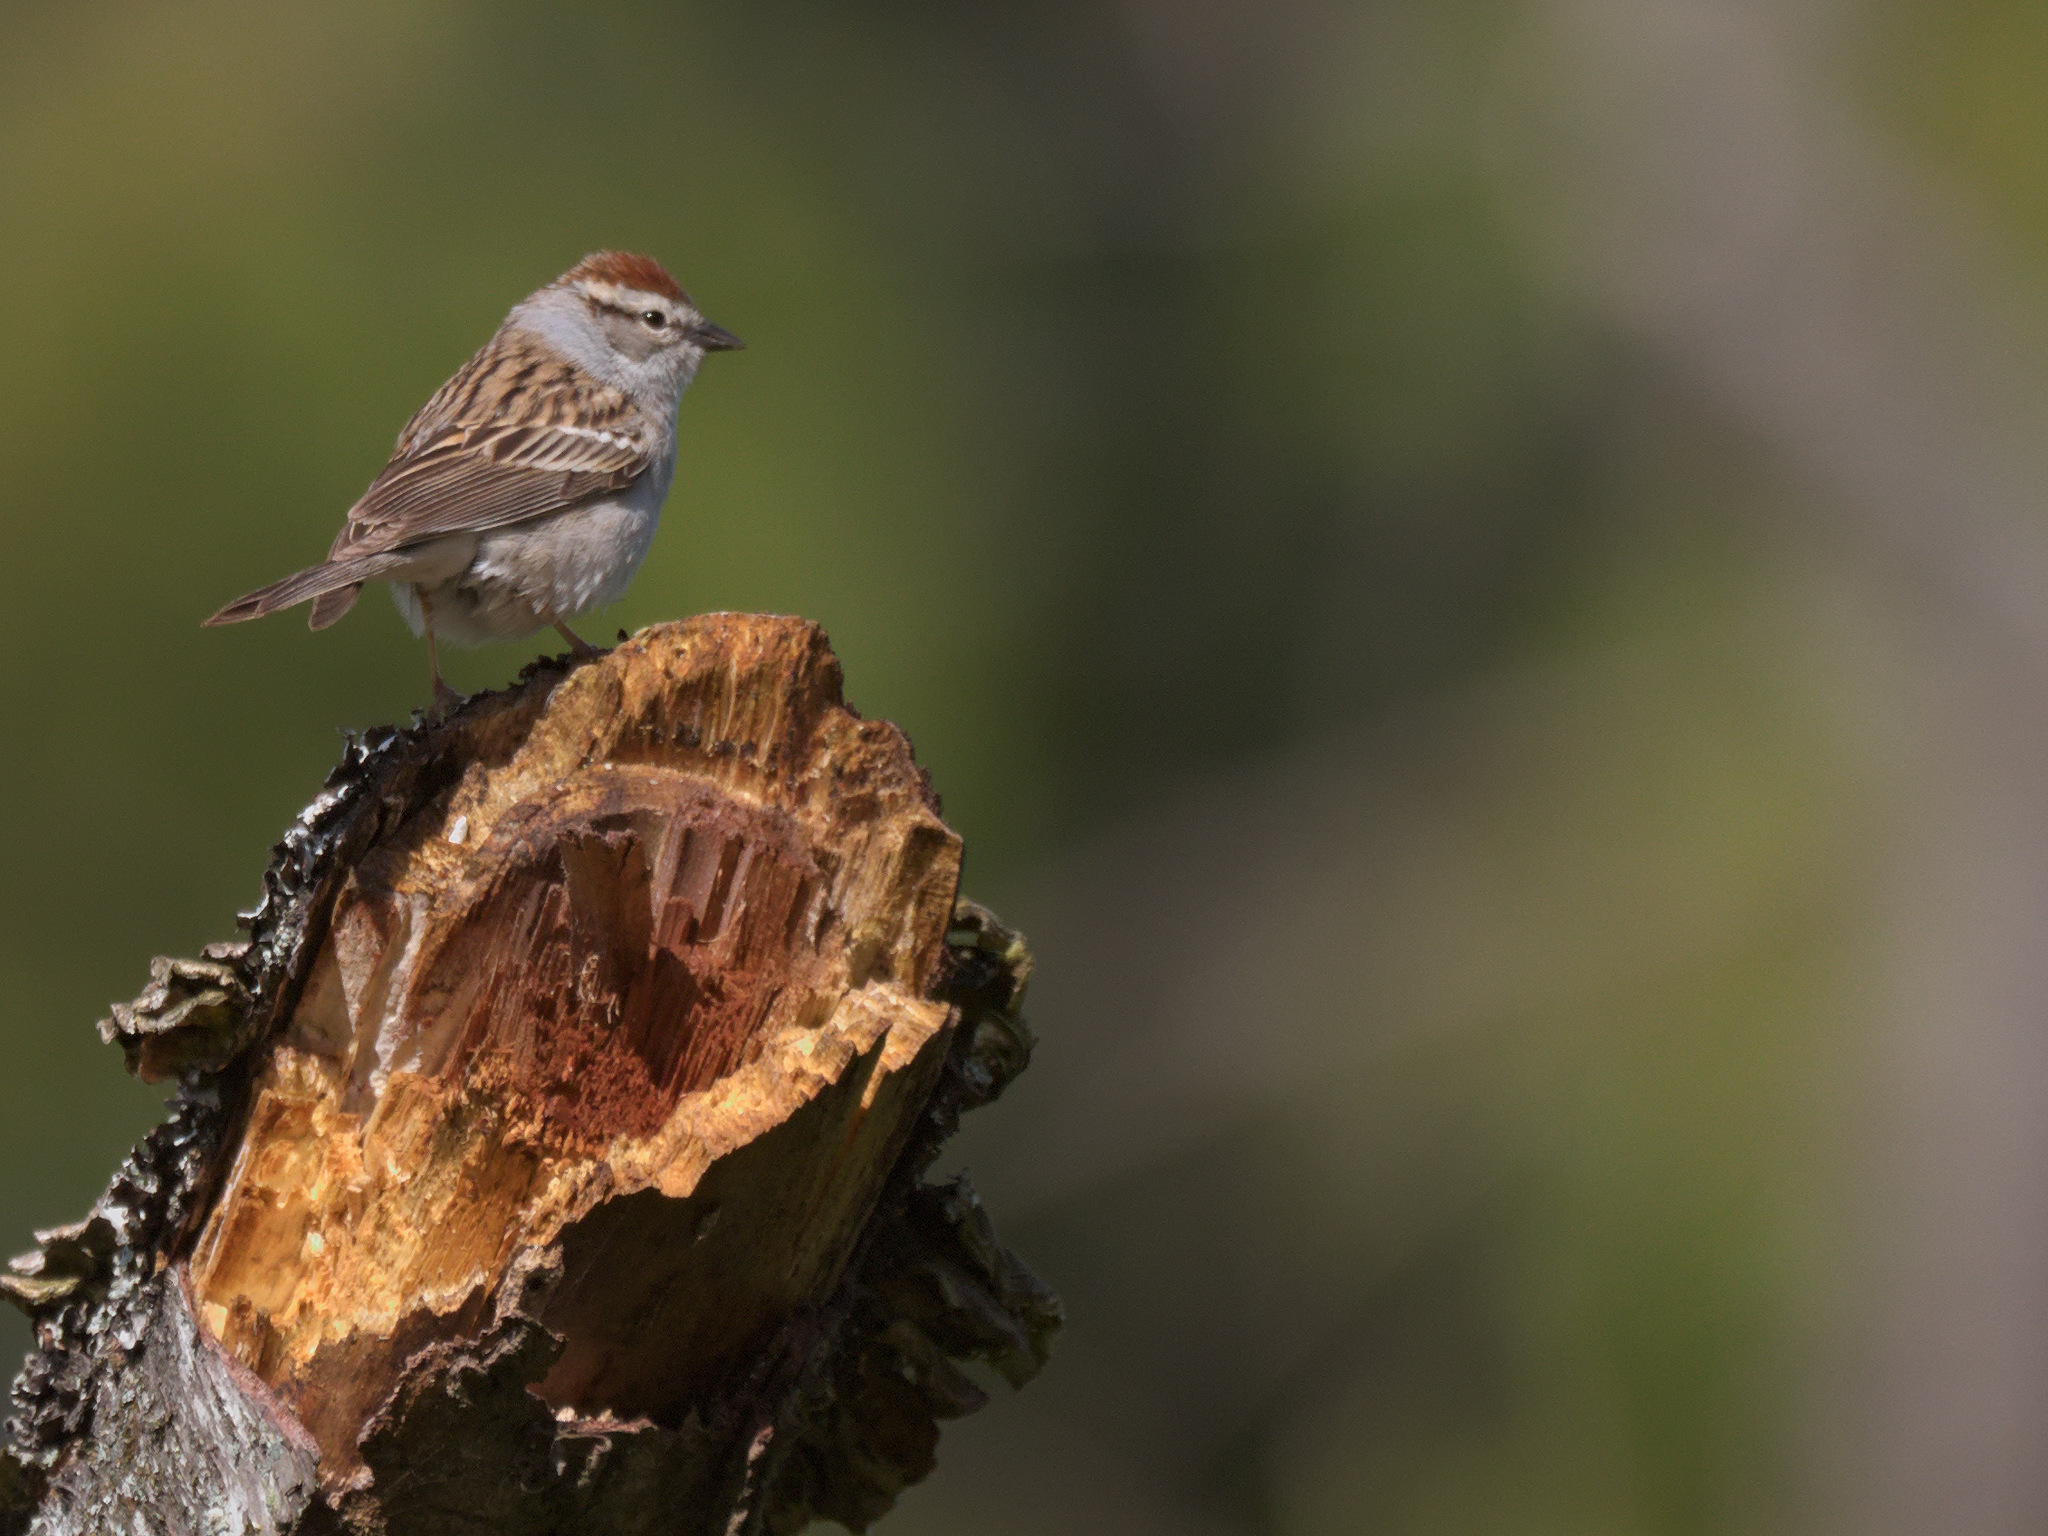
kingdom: Animalia
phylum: Chordata
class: Aves
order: Passeriformes
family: Passerellidae
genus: Spizella
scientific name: Spizella passerina
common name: Chipping sparrow
